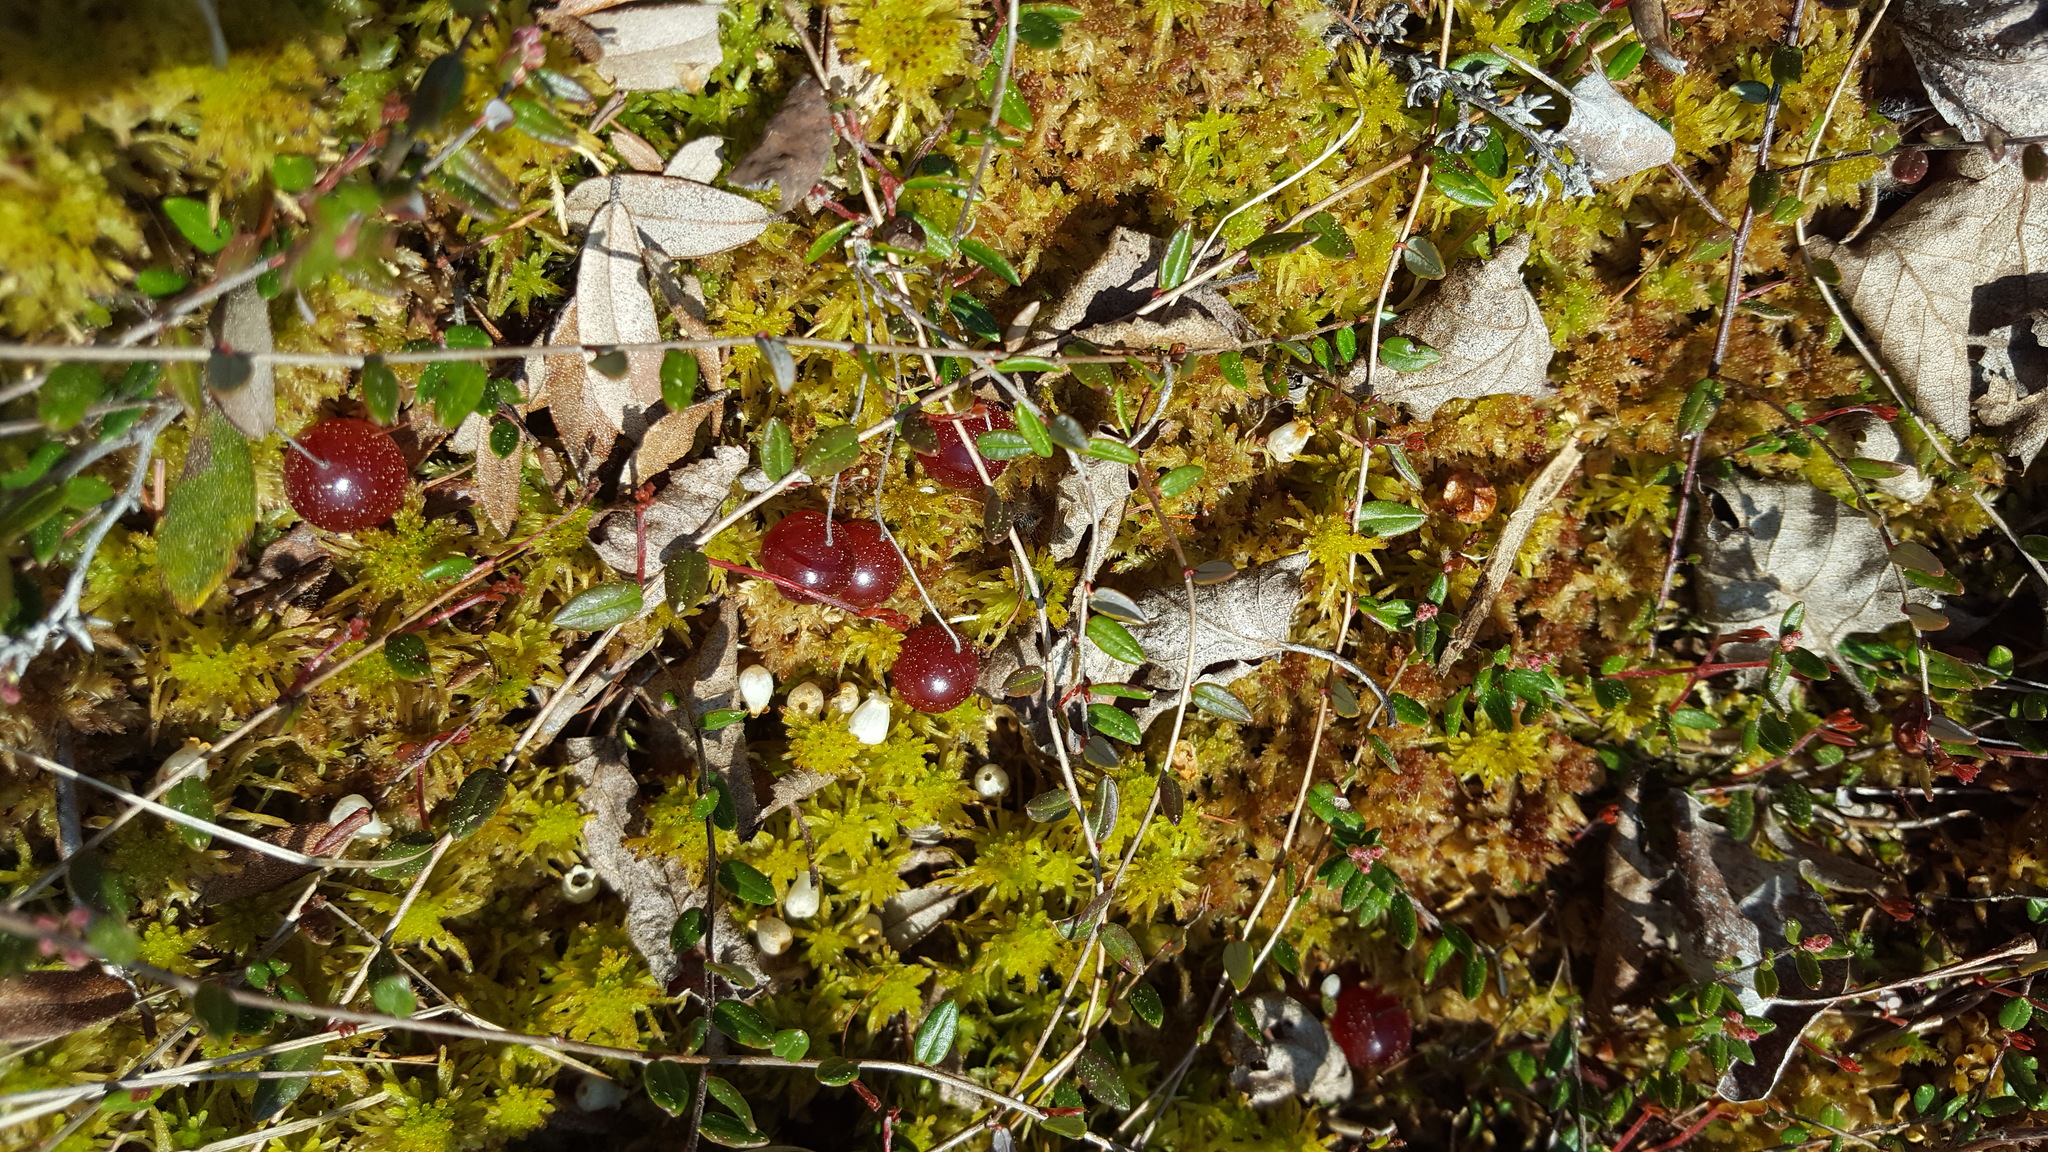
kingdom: Plantae
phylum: Tracheophyta
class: Magnoliopsida
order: Ericales
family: Ericaceae
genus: Vaccinium
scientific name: Vaccinium oxycoccos
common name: Cranberry
